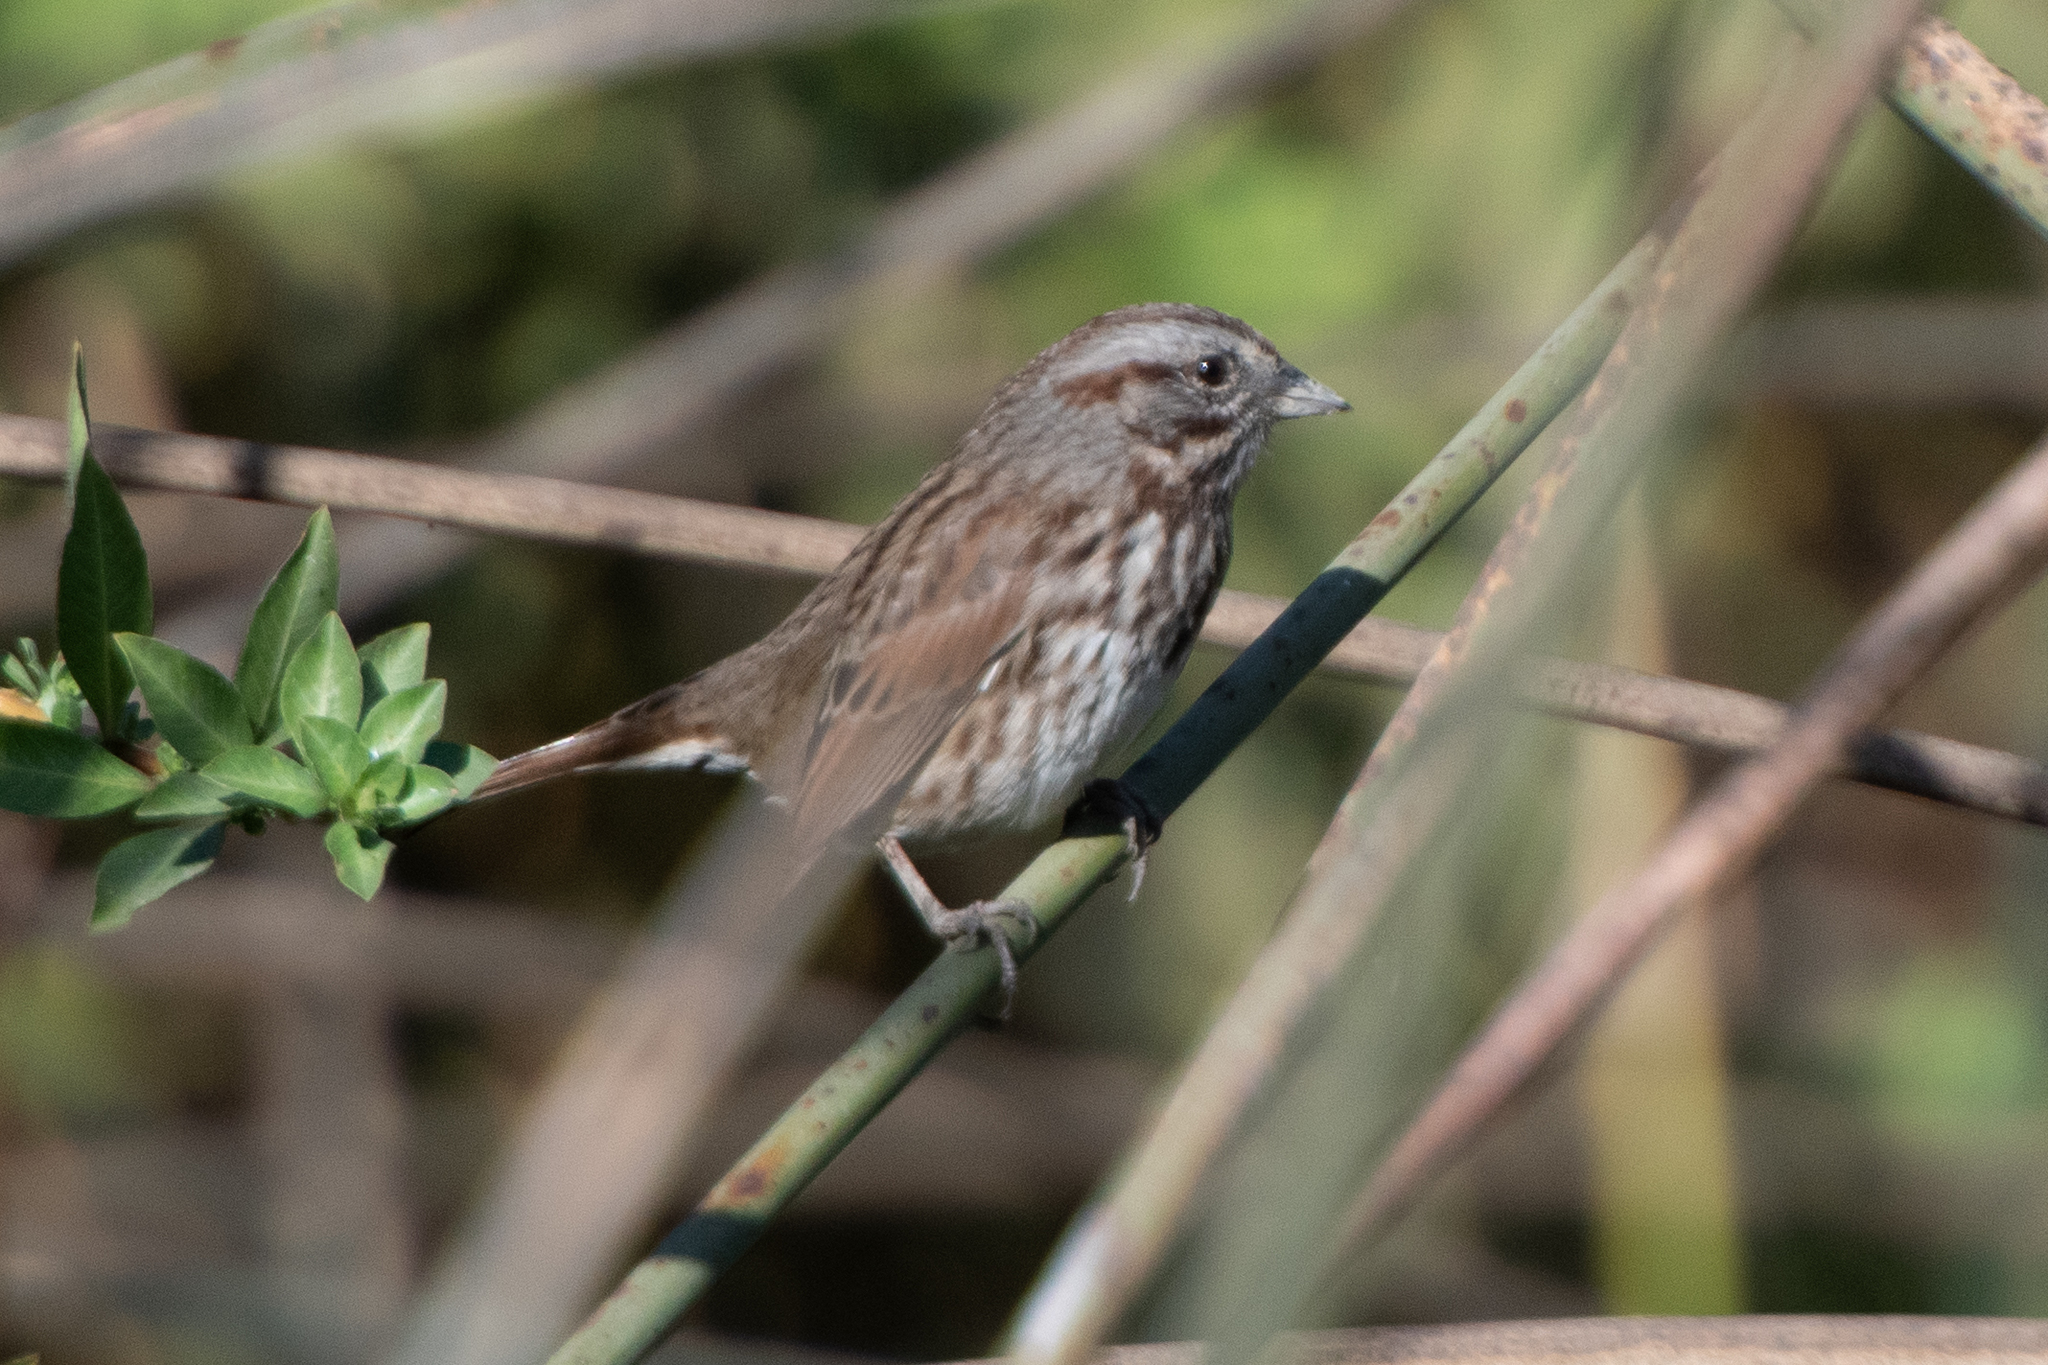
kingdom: Animalia
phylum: Chordata
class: Aves
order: Passeriformes
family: Passerellidae
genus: Melospiza
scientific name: Melospiza melodia
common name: Song sparrow
